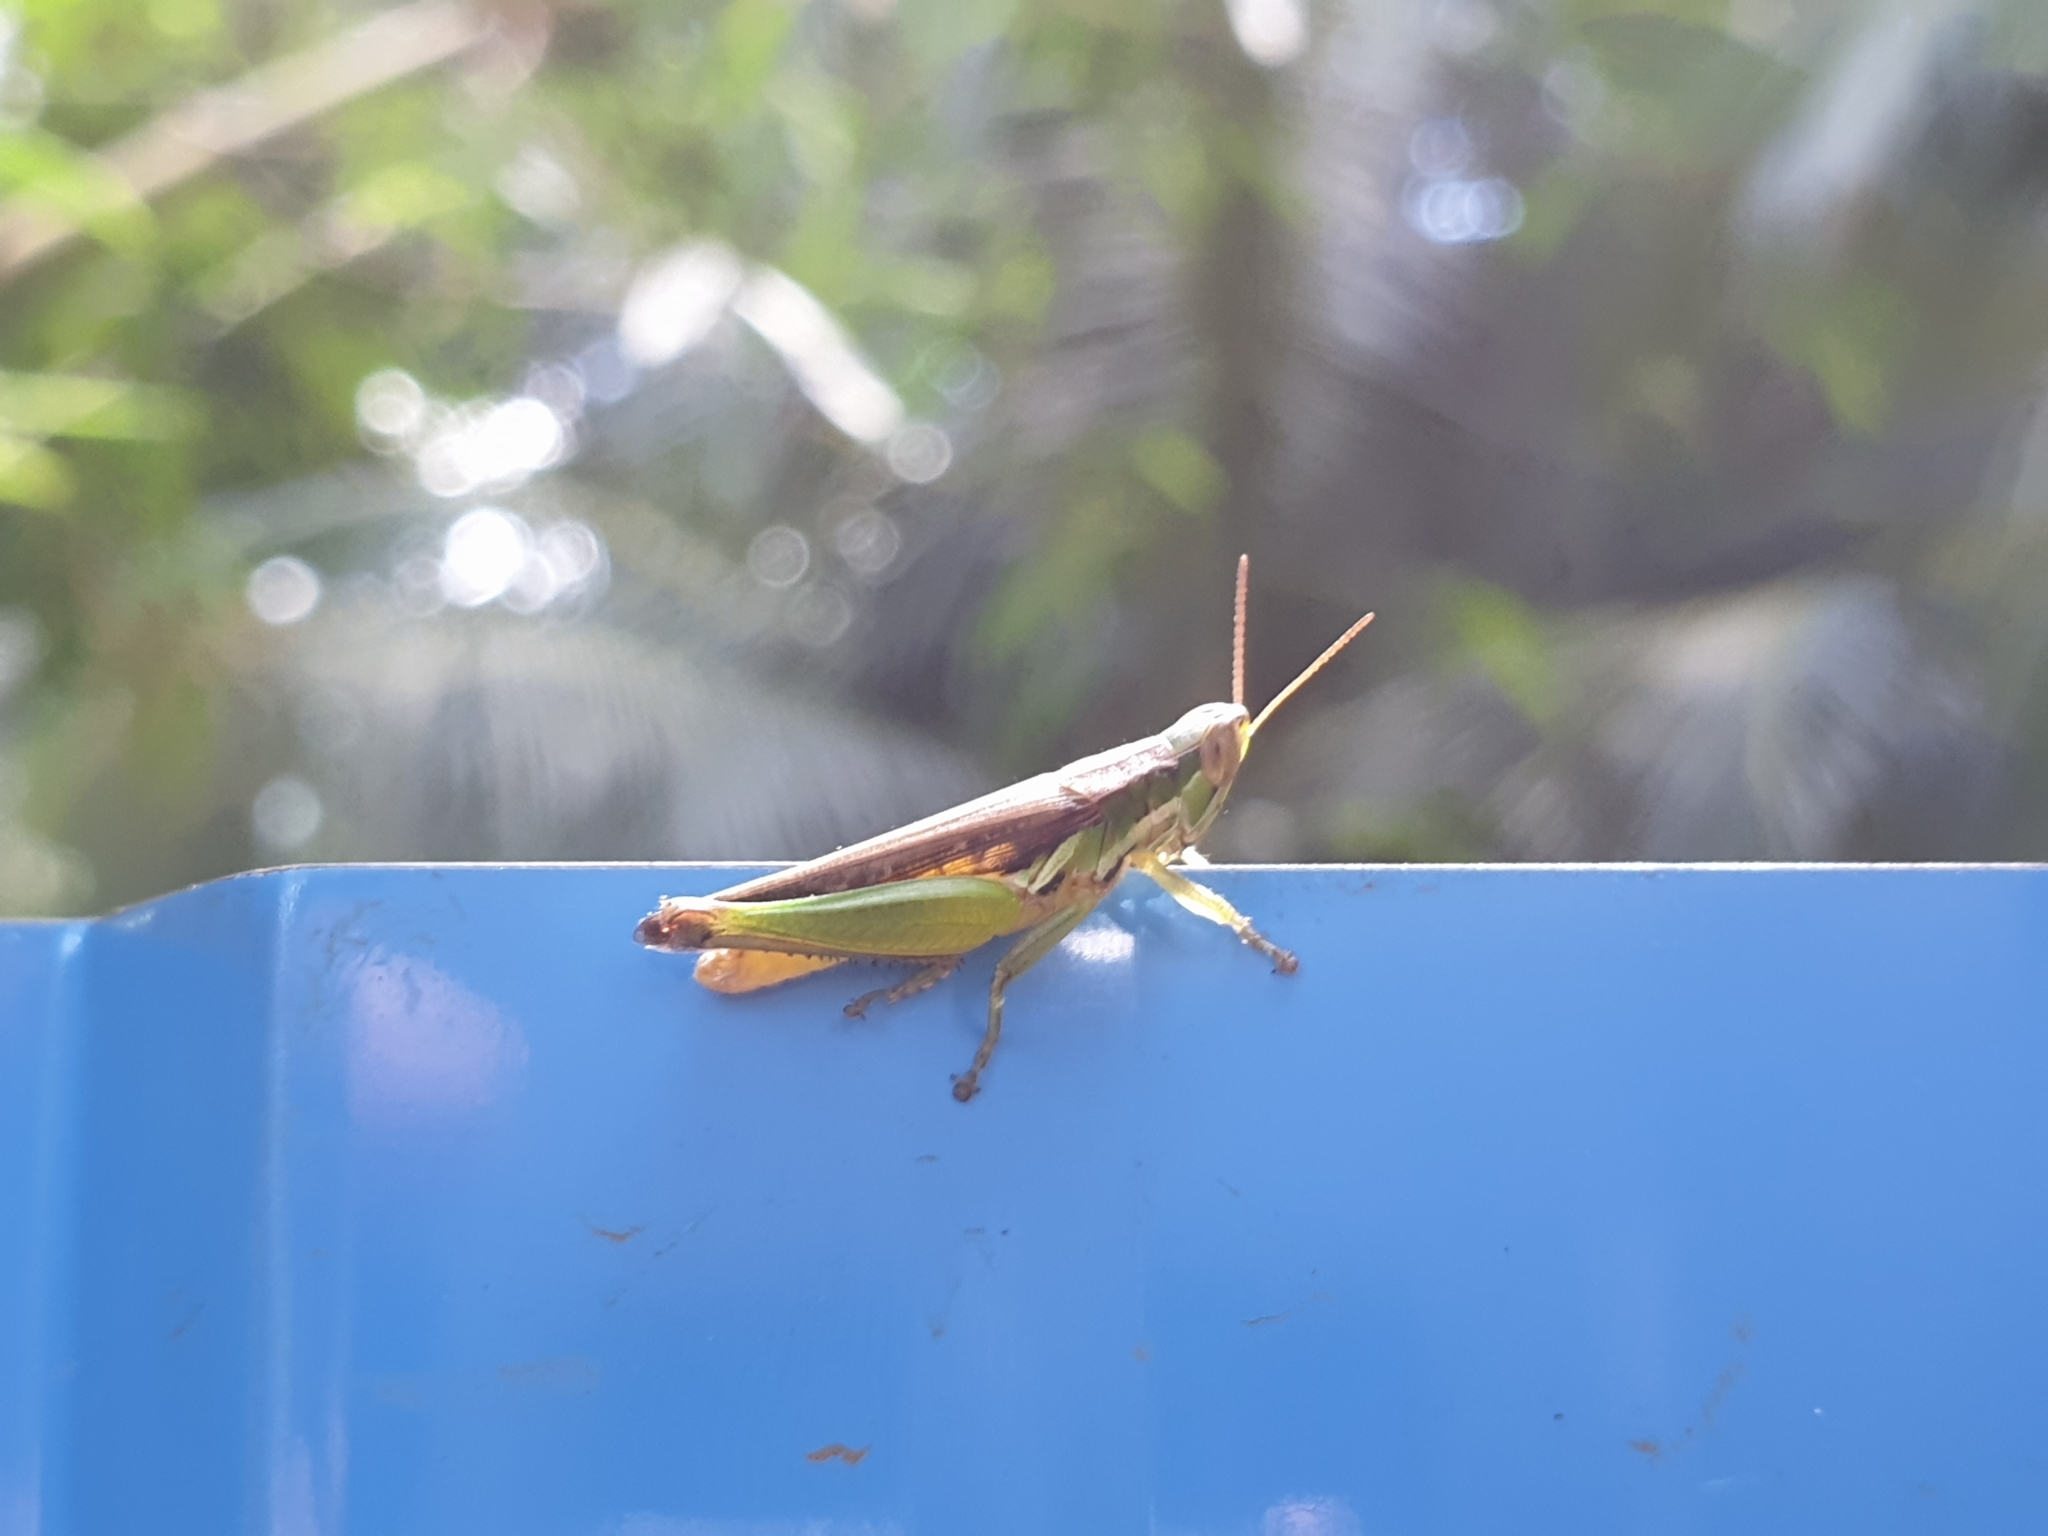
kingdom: Animalia
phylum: Arthropoda
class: Insecta
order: Orthoptera
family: Acrididae
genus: Spathosternum
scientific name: Spathosternum prasiniferum
